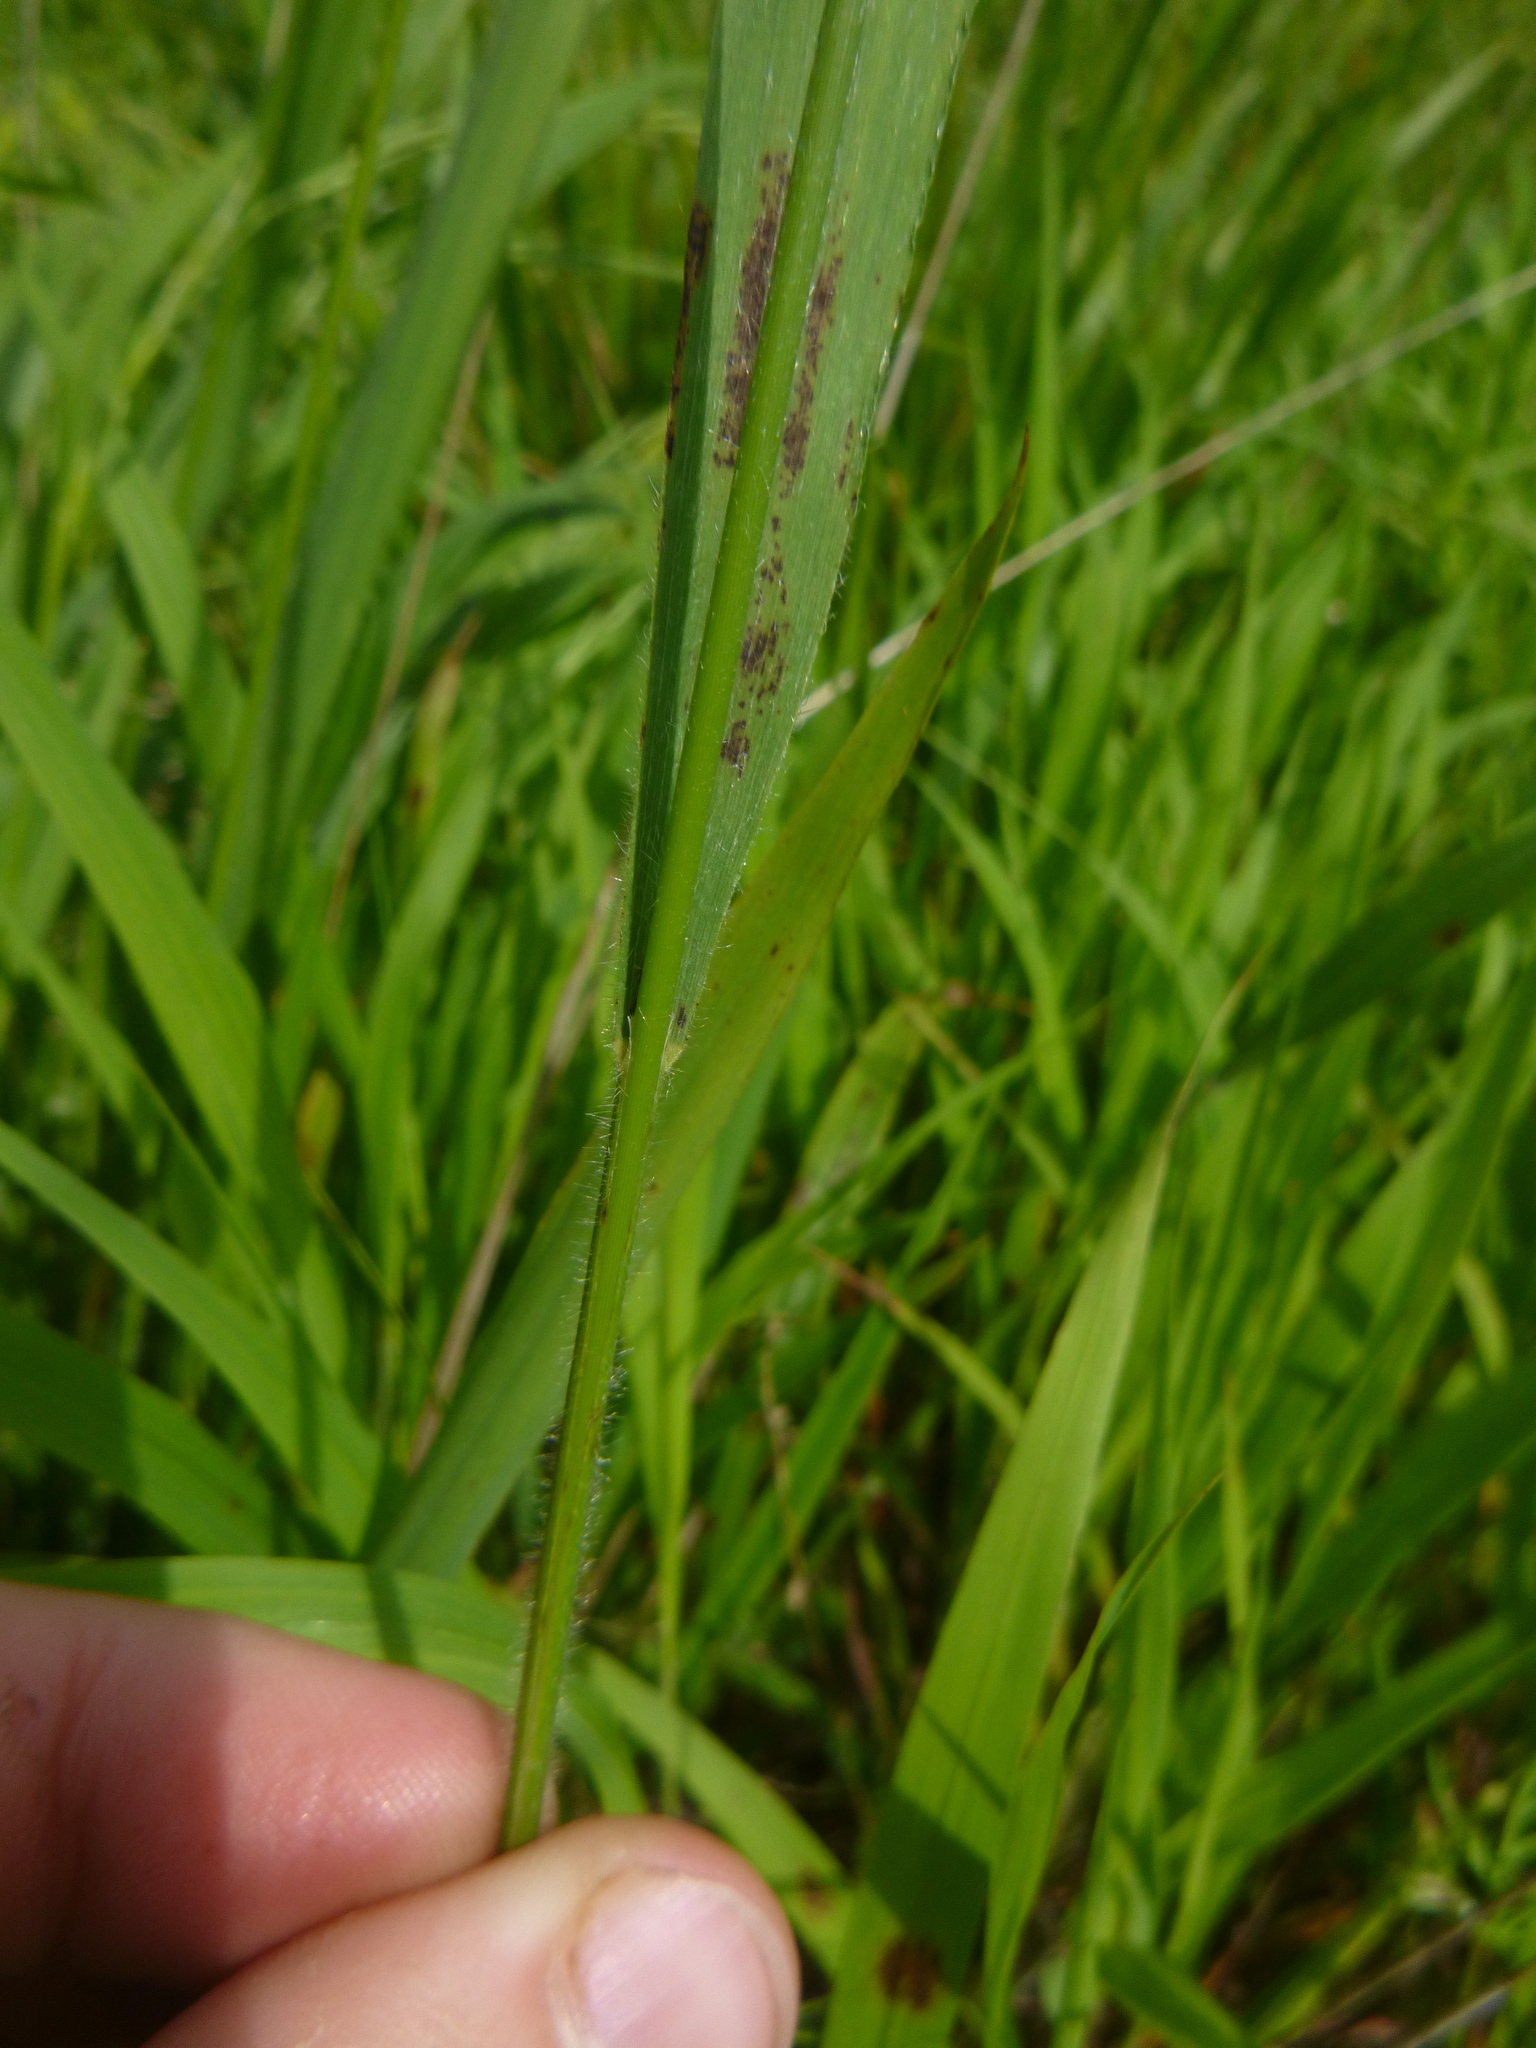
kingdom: Plantae
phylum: Tracheophyta
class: Liliopsida
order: Poales
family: Poaceae
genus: Brachypodium
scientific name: Brachypodium sylvaticum
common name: False-brome
